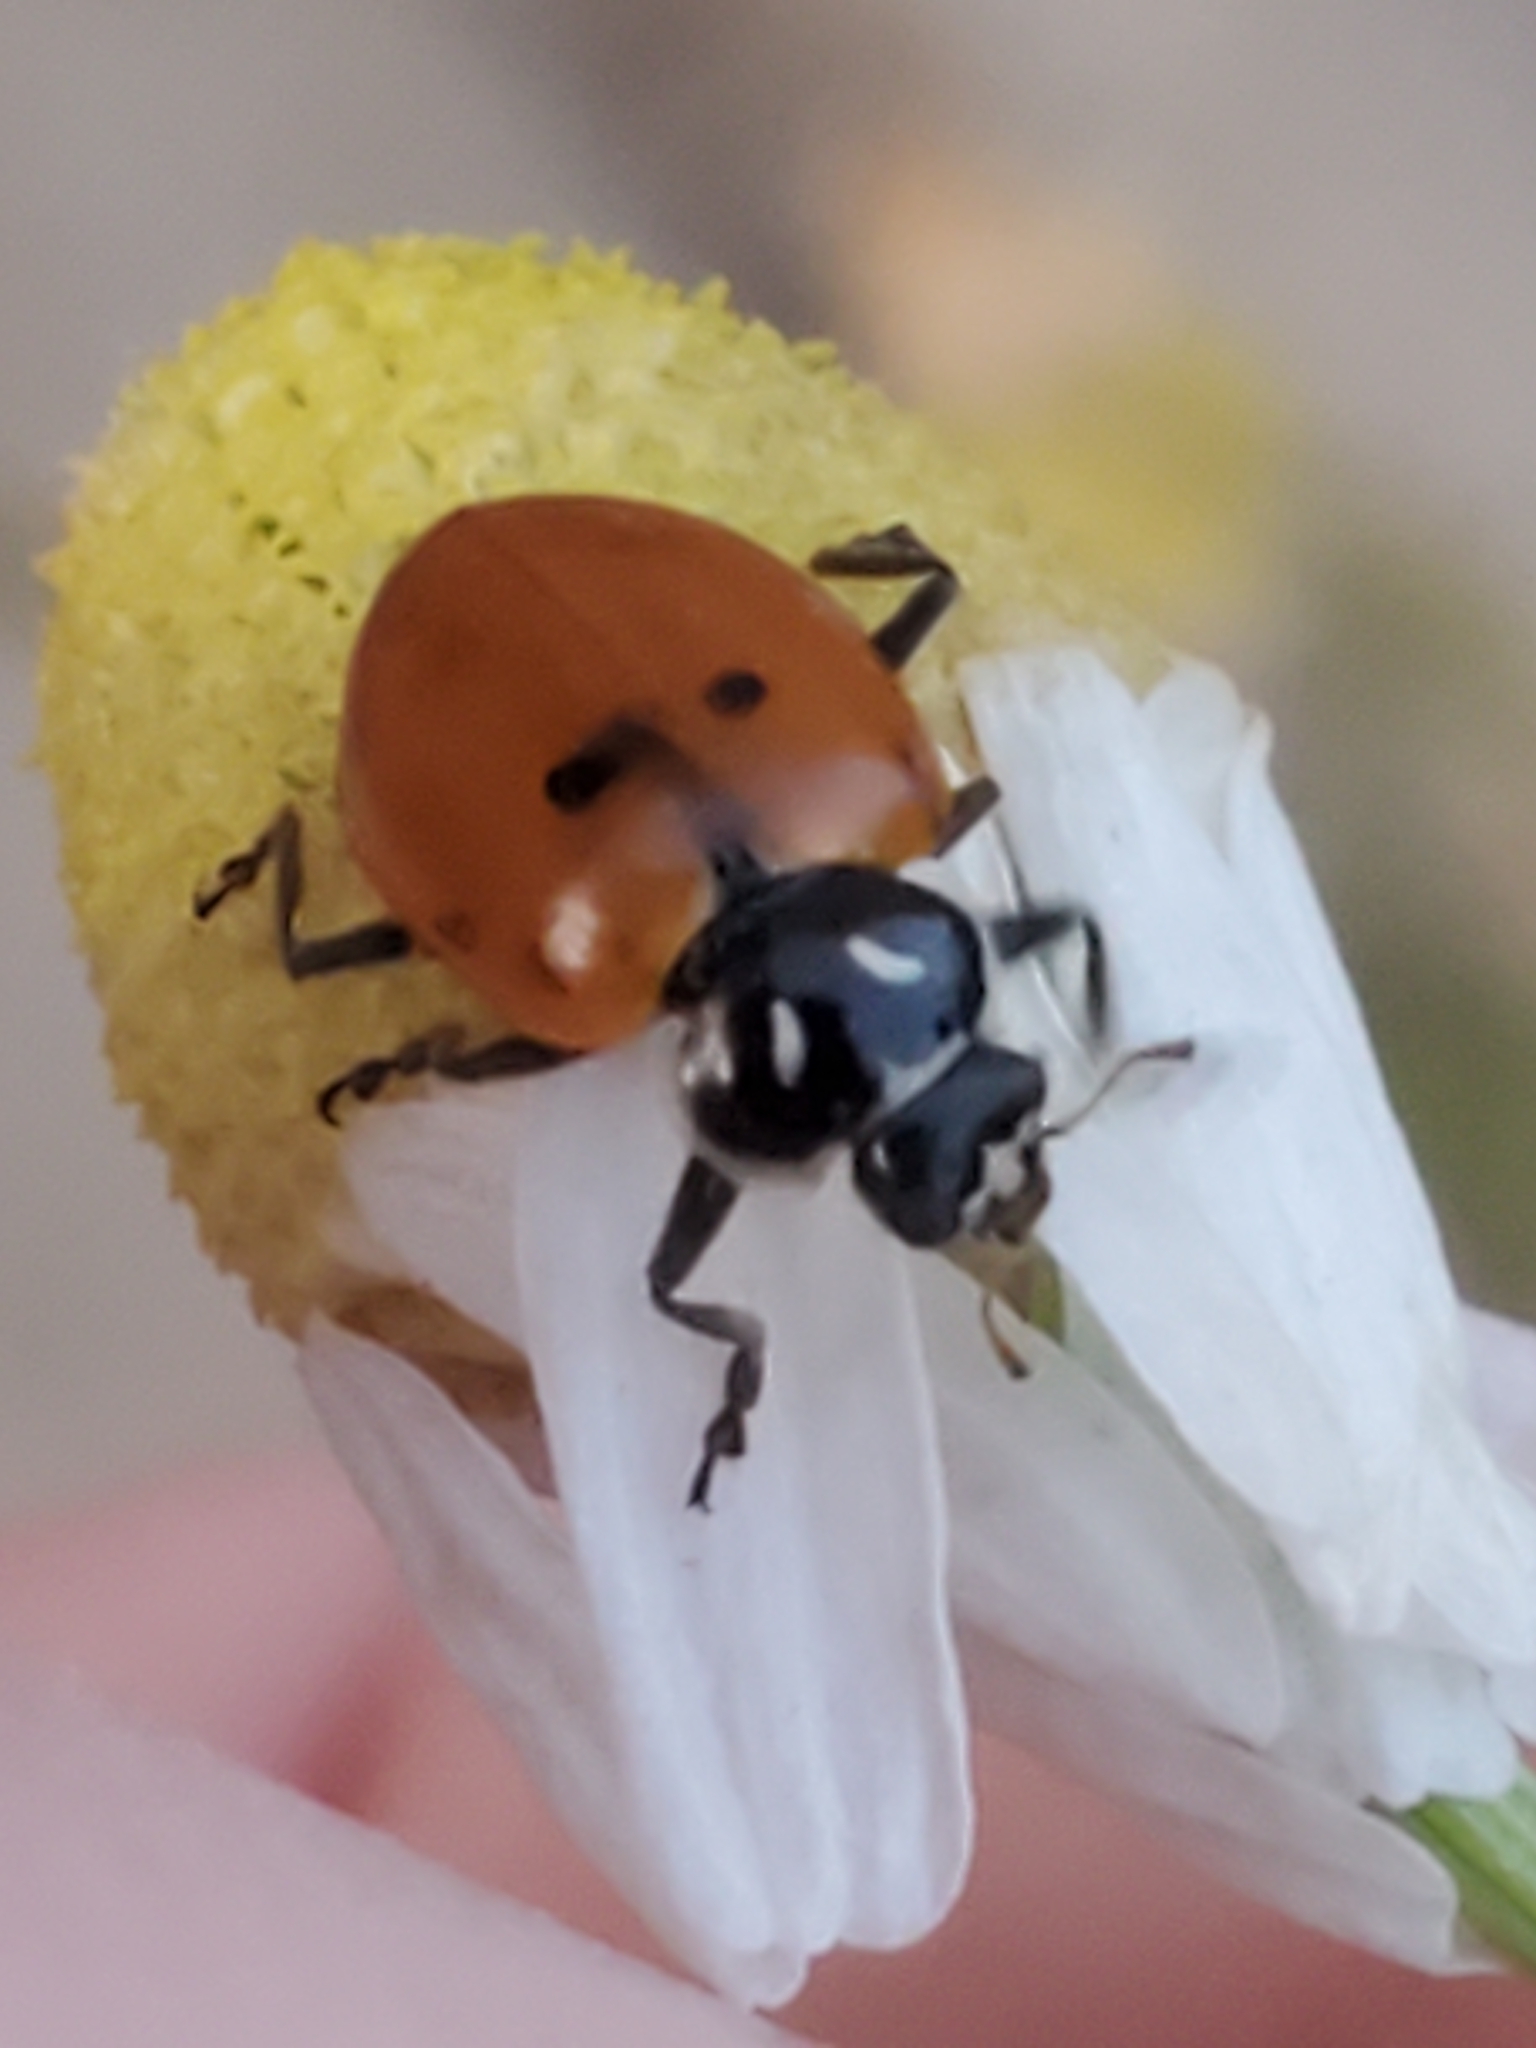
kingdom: Animalia
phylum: Arthropoda
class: Insecta
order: Coleoptera
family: Coccinellidae
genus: Hippodamia
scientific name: Hippodamia convergens
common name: Convergent lady beetle
